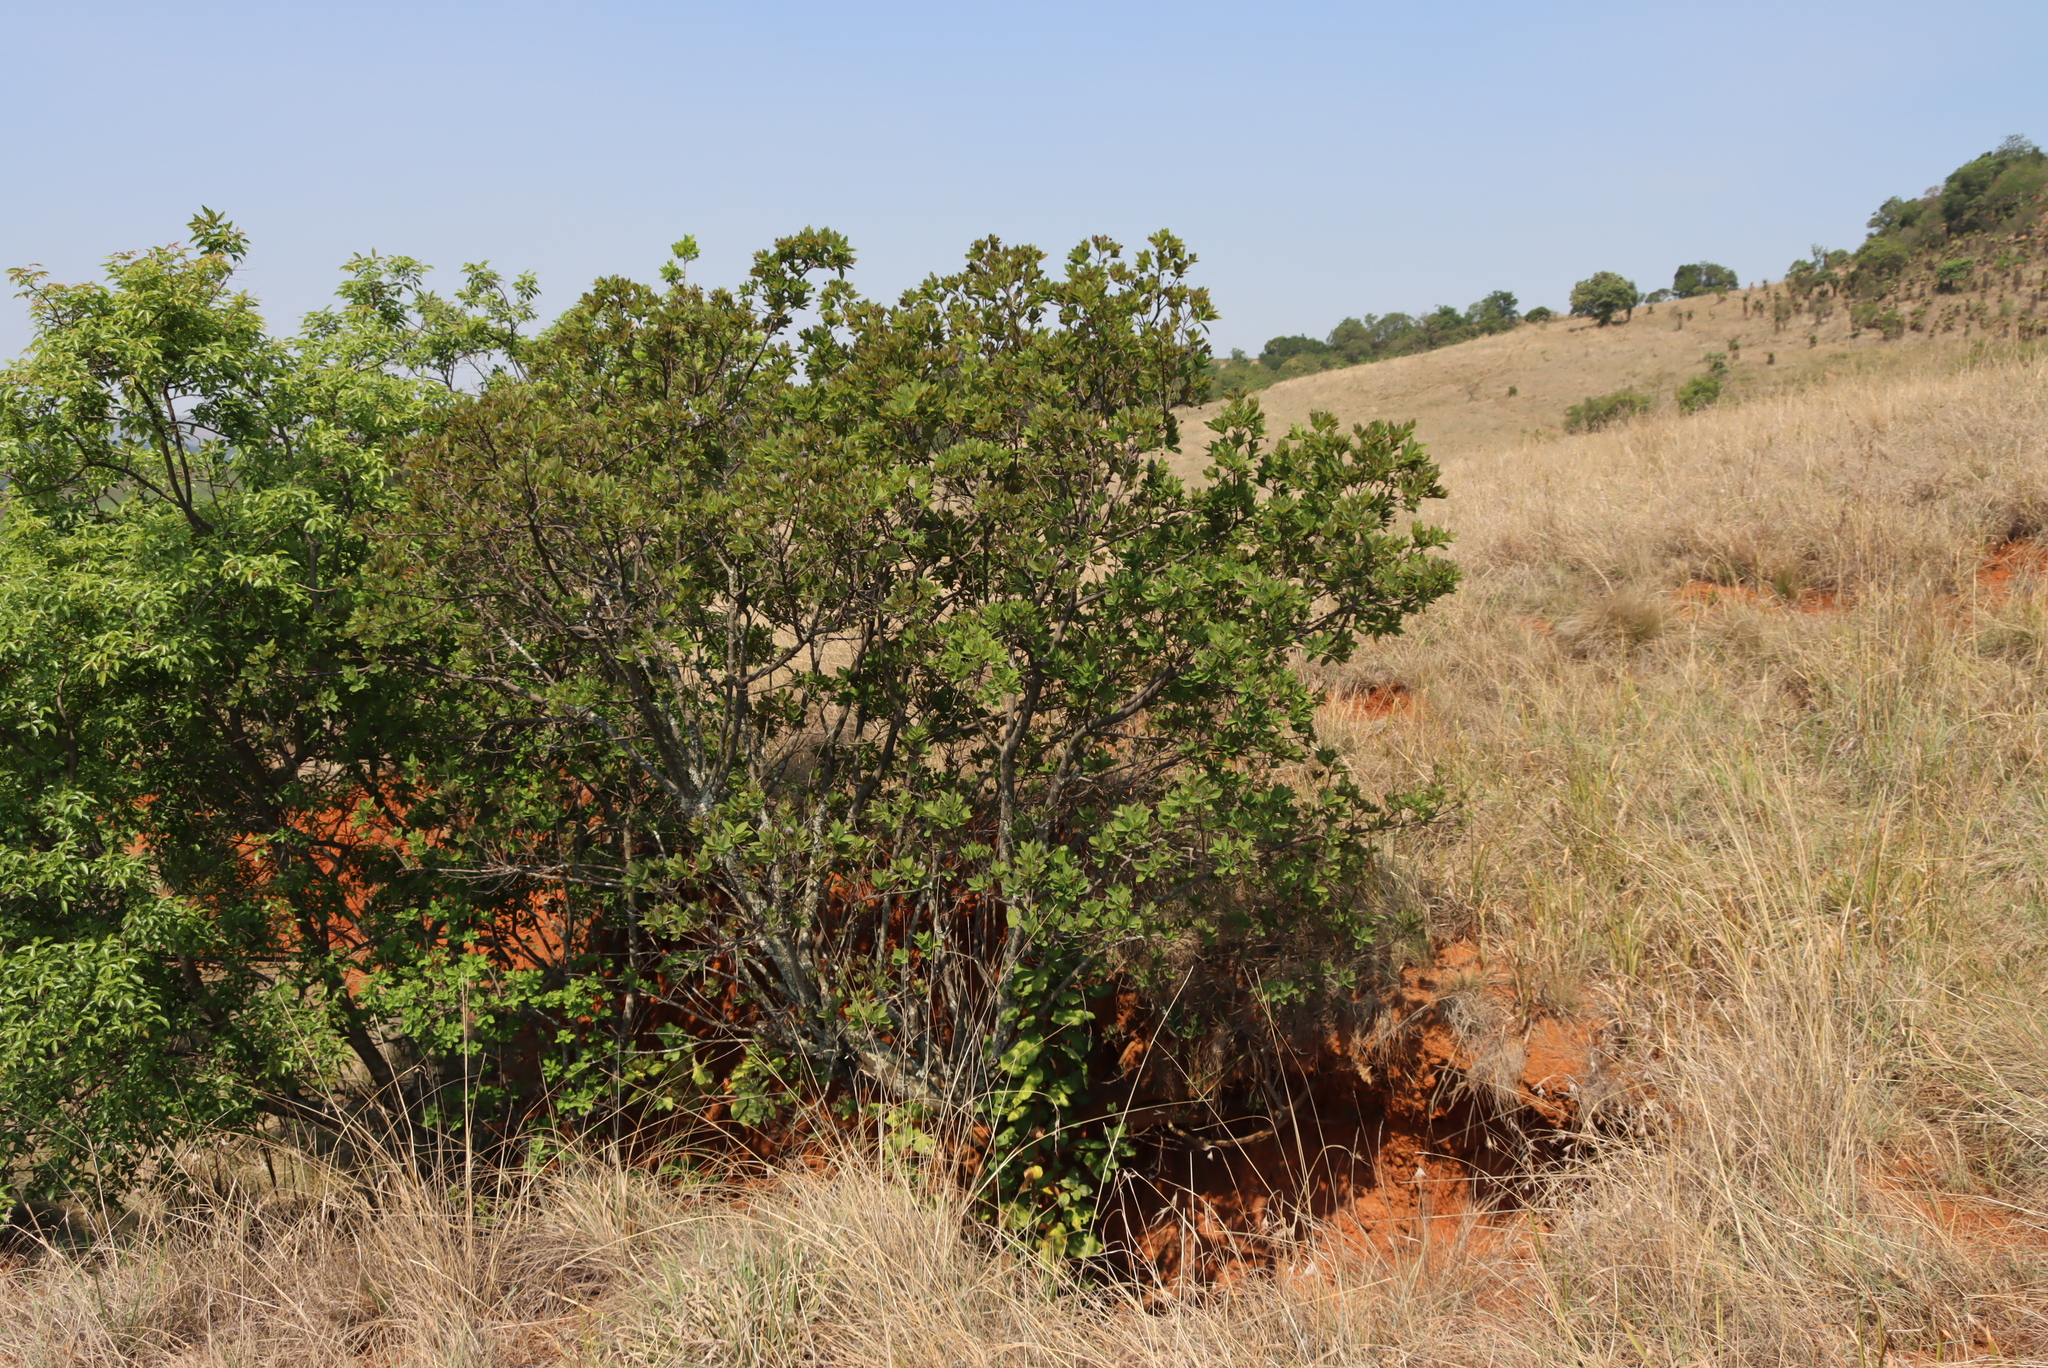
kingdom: Plantae
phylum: Tracheophyta
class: Magnoliopsida
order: Malvales
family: Thymelaeaceae
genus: Dais
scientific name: Dais cotinifolia
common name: Pompon tree
